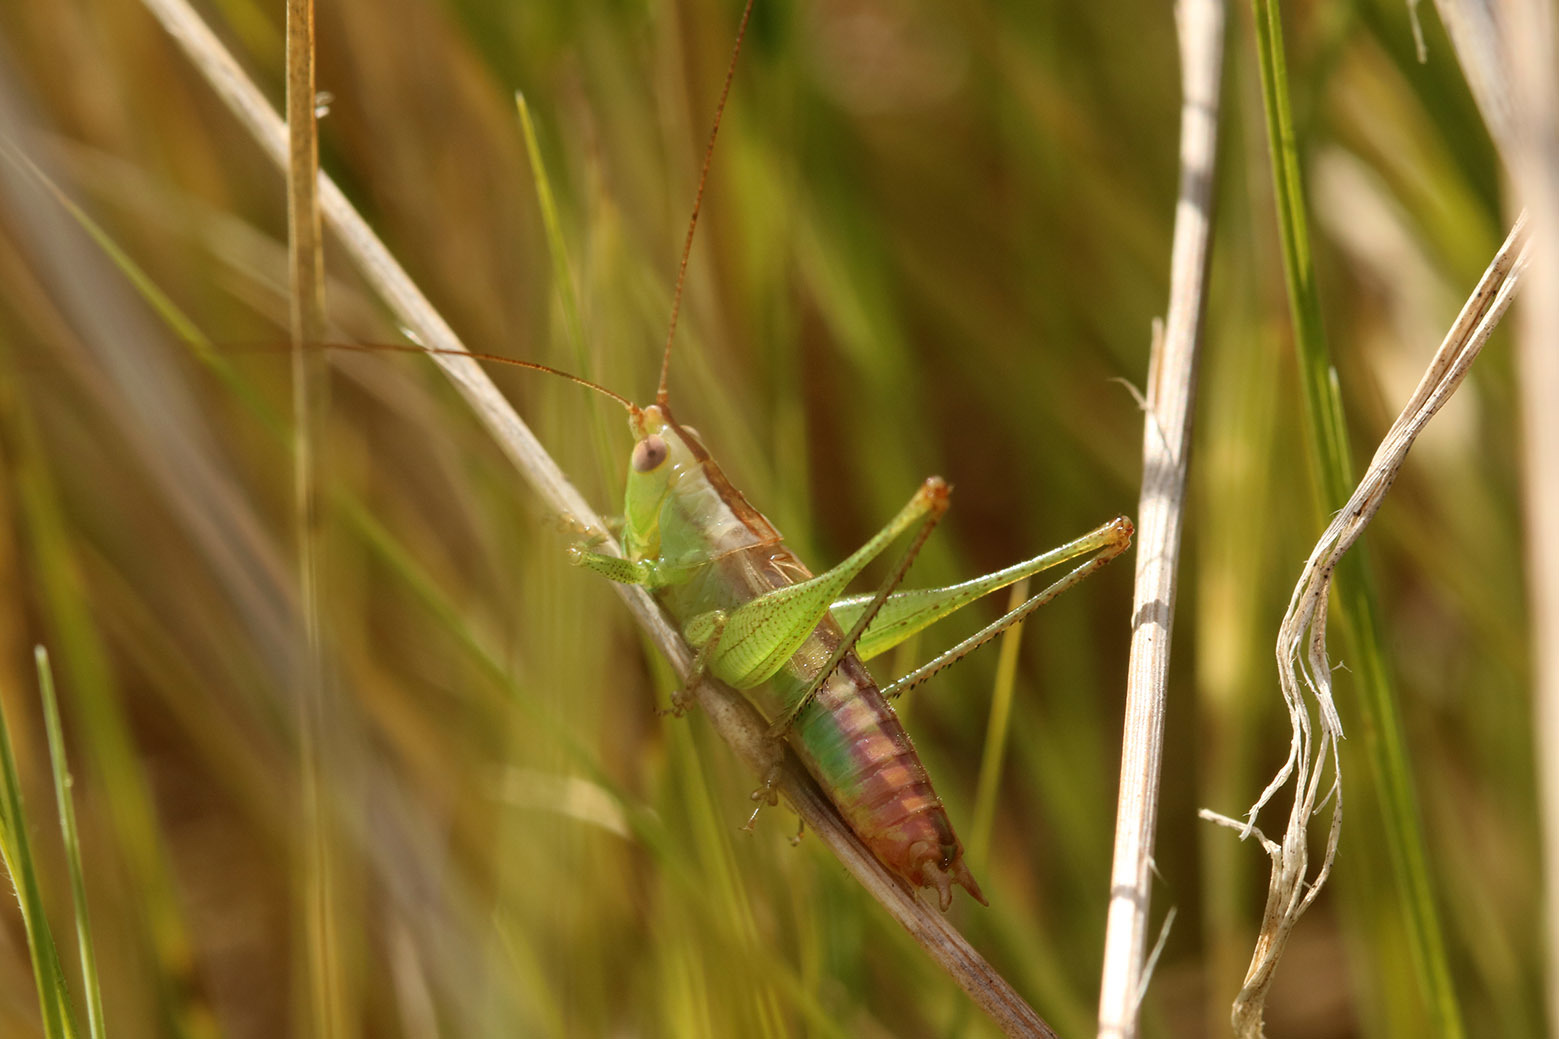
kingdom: Animalia
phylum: Arthropoda
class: Insecta
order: Orthoptera
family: Tettigoniidae
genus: Conocephalus
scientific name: Conocephalus doryphorus
